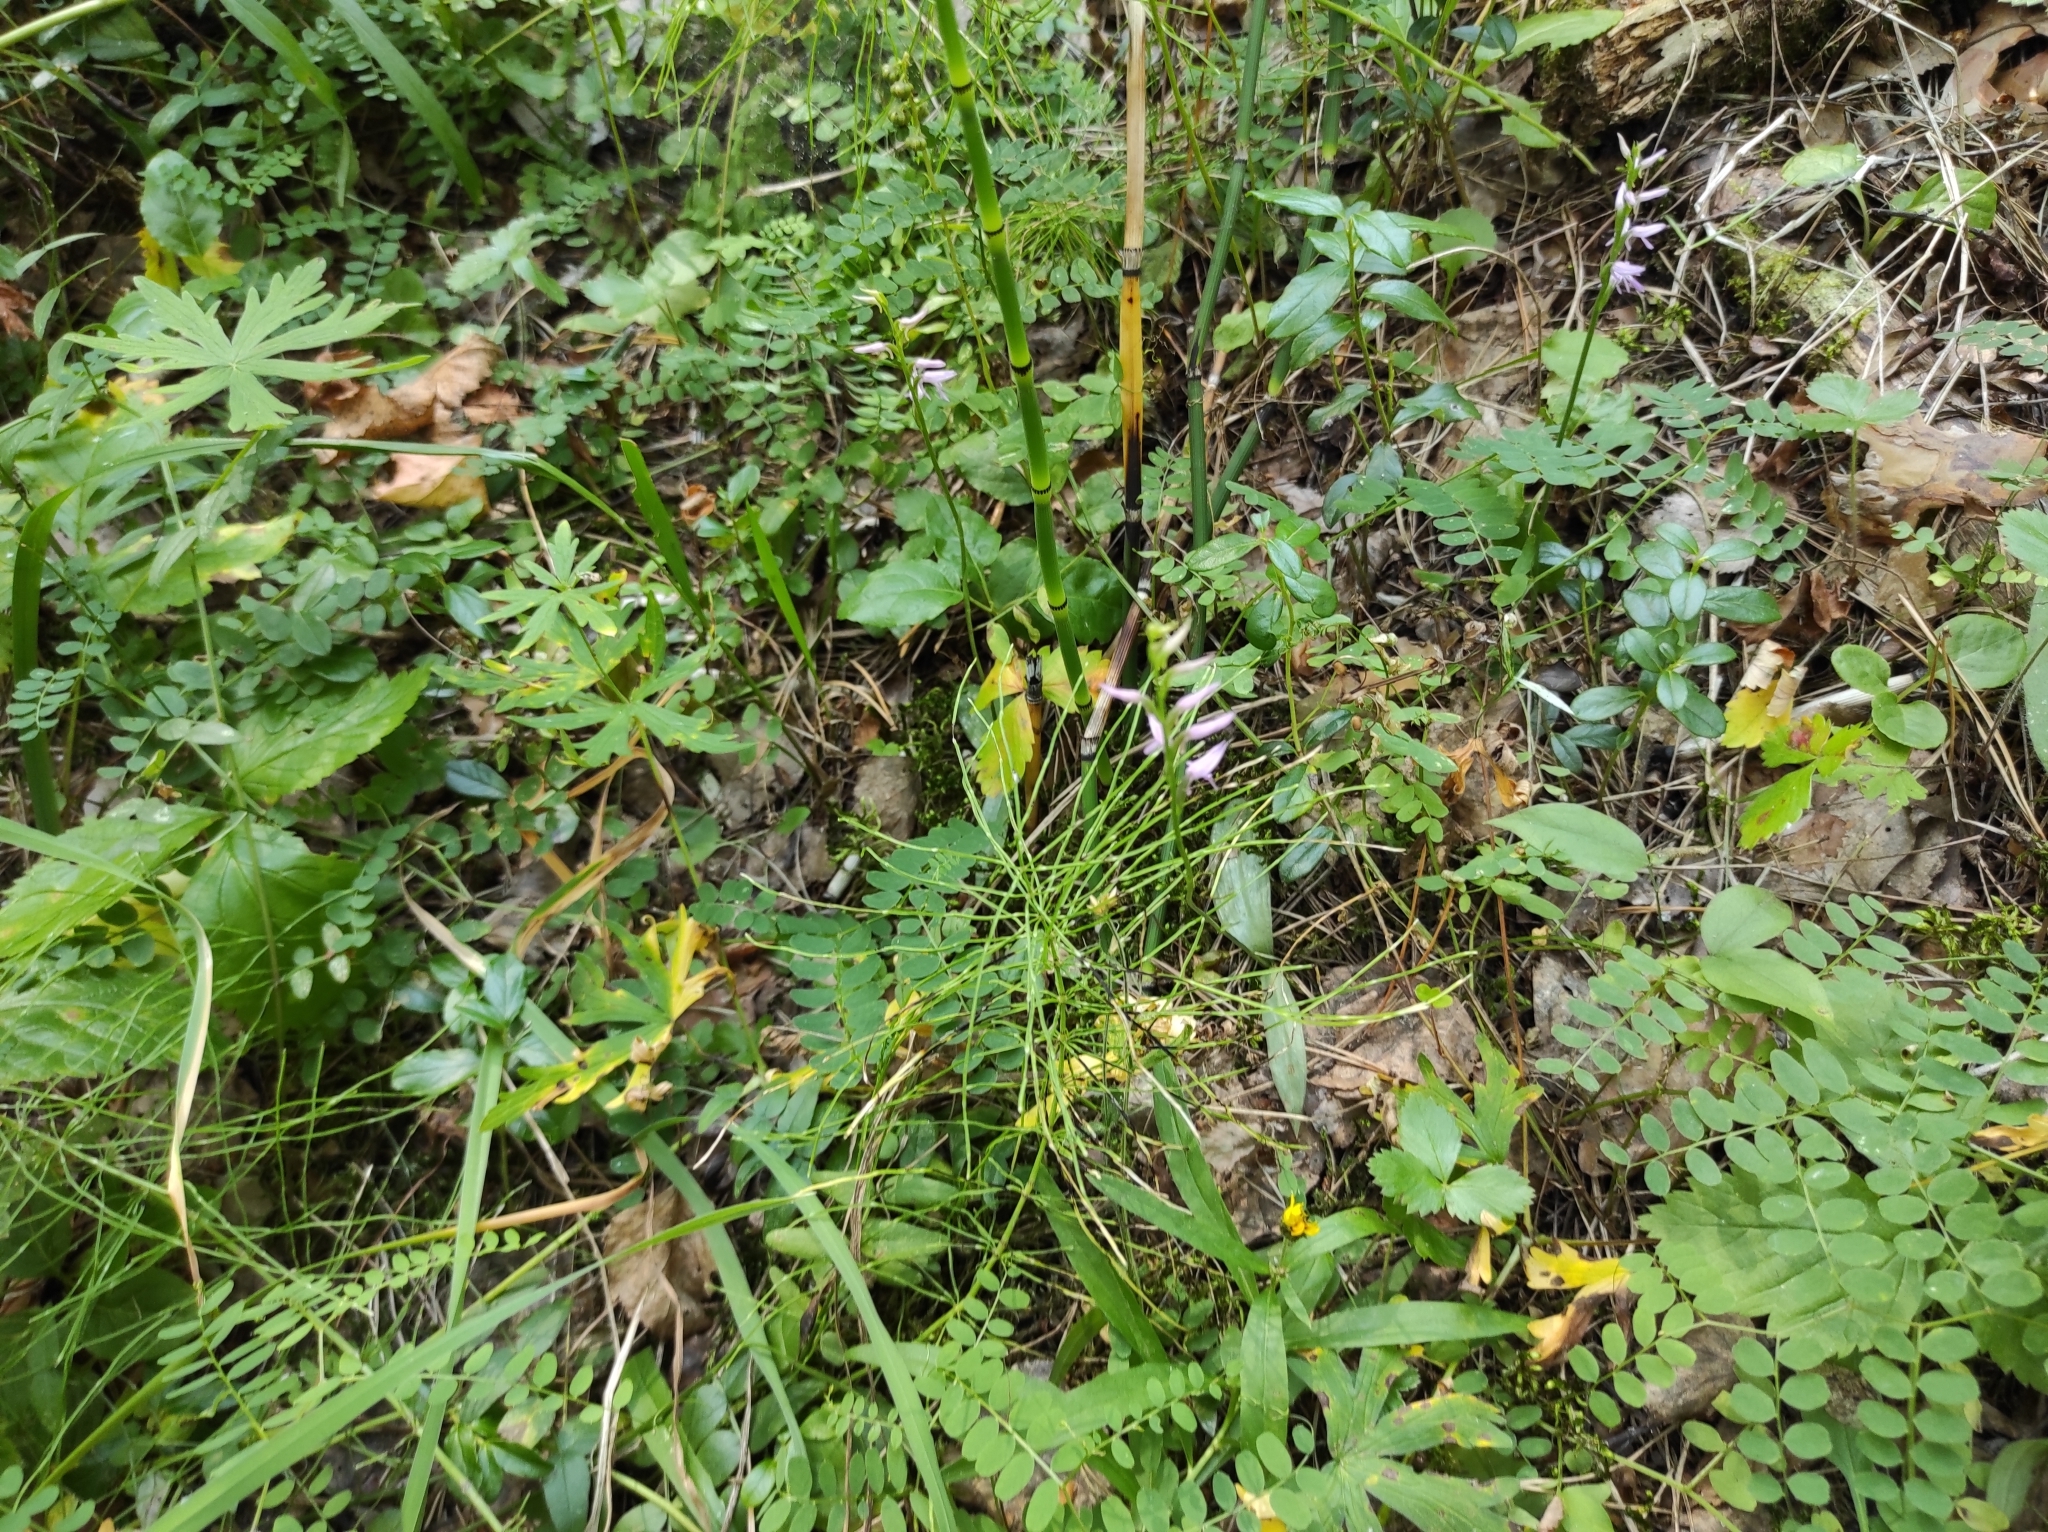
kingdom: Plantae
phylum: Tracheophyta
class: Liliopsida
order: Asparagales
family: Orchidaceae
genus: Hemipilia
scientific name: Hemipilia cucullata
